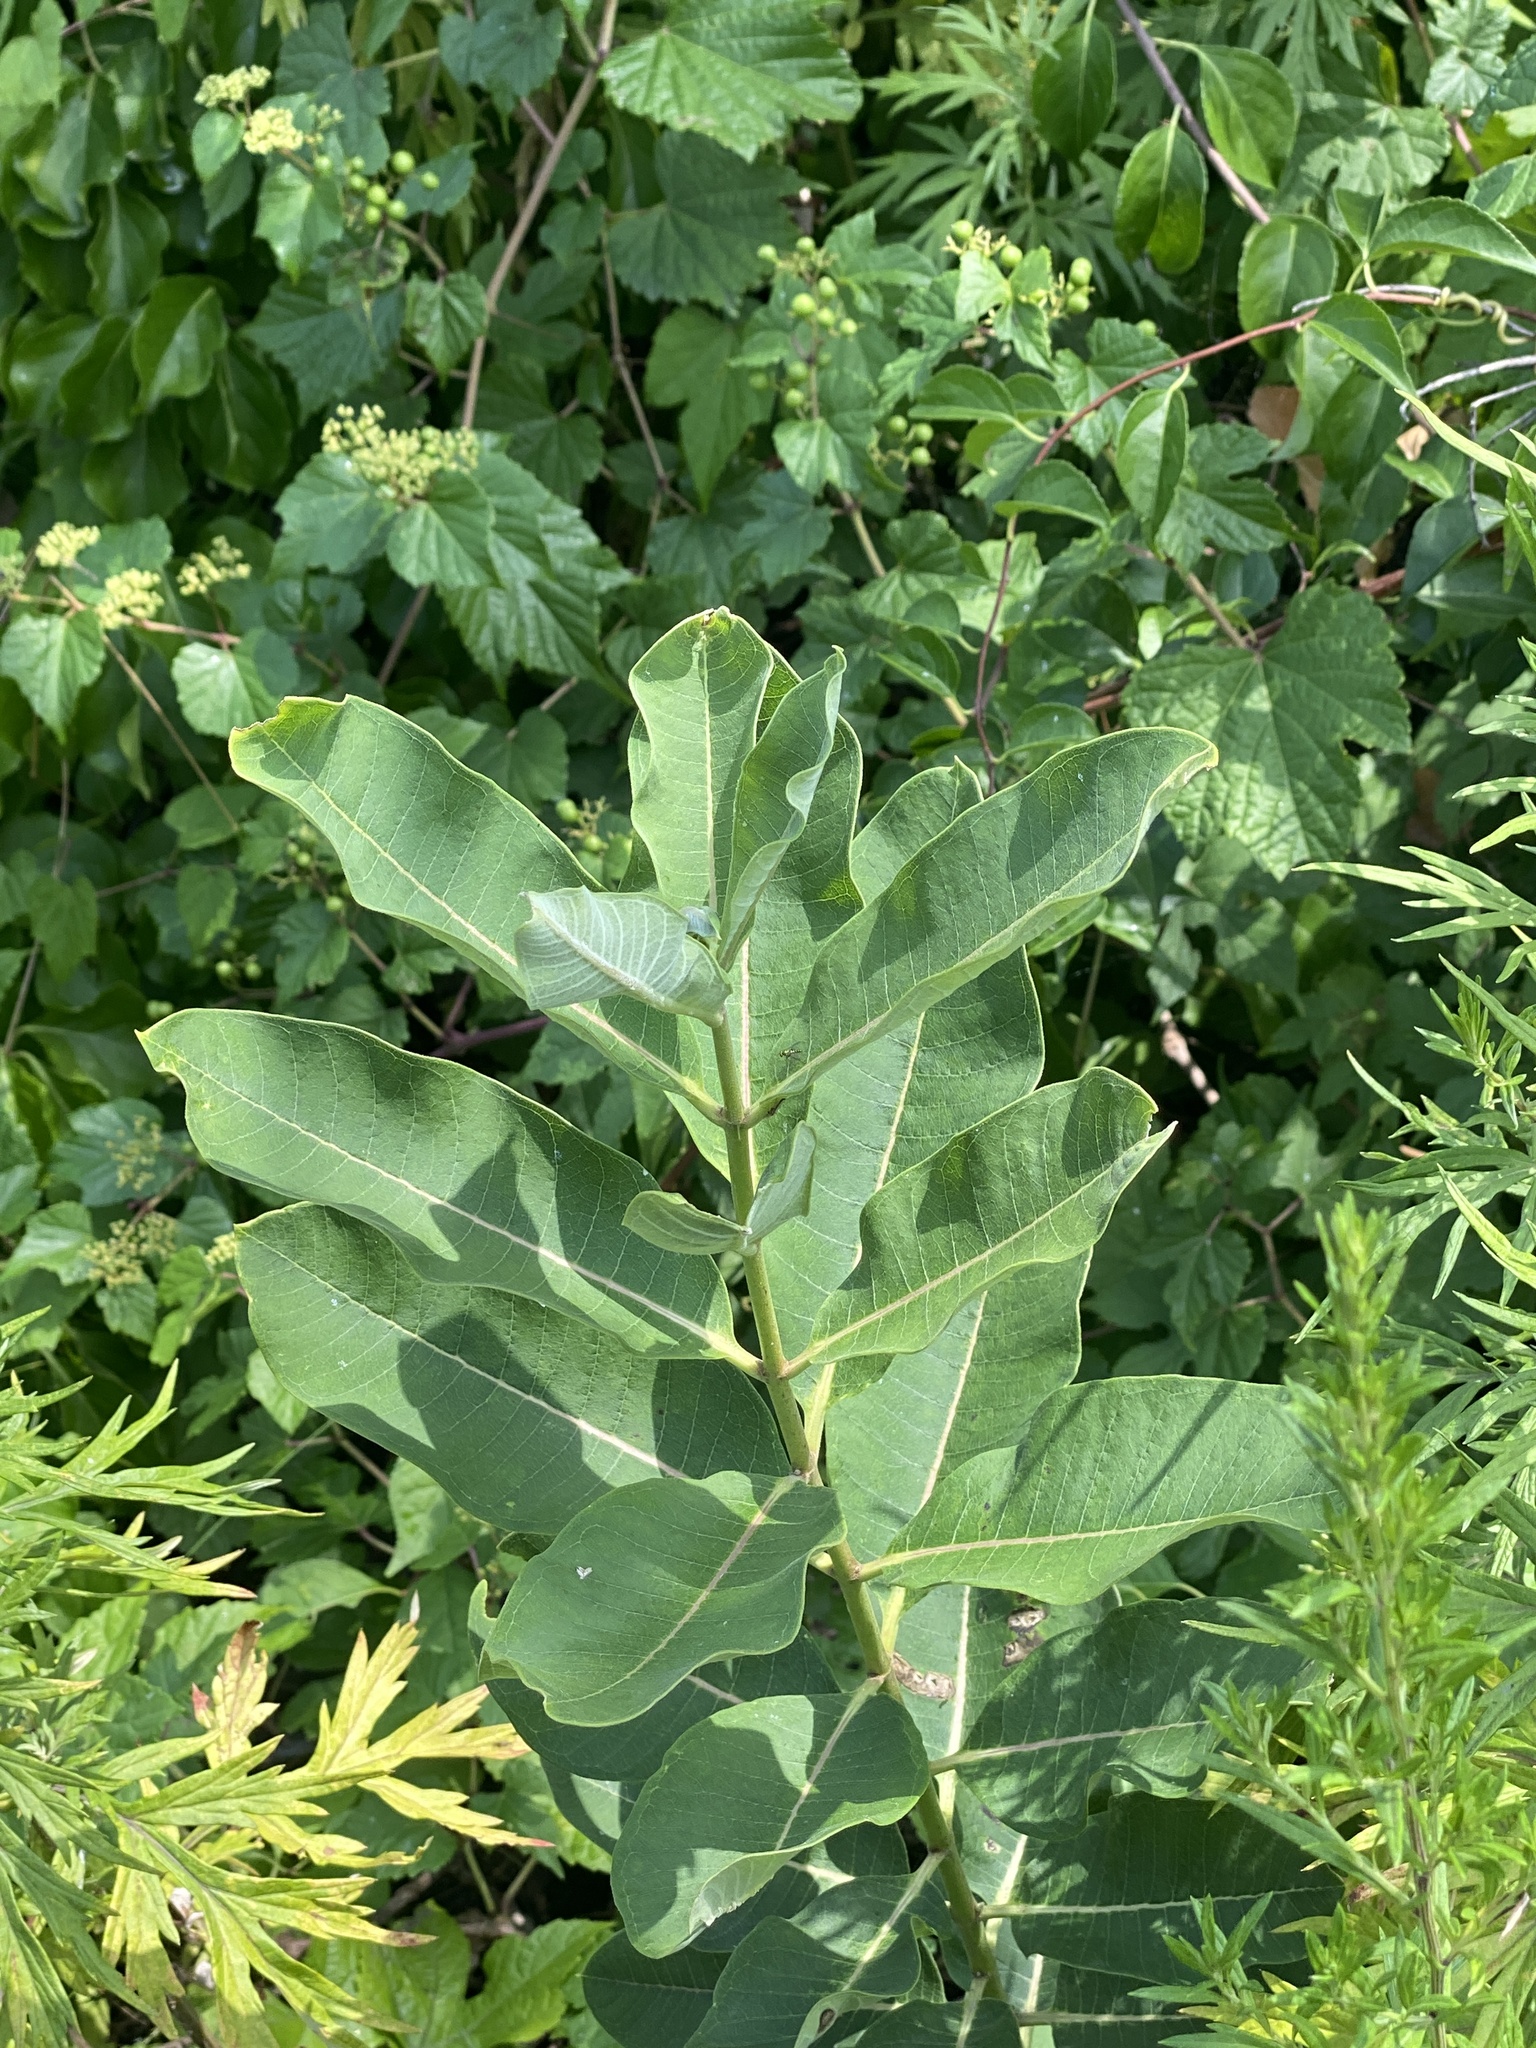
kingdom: Plantae
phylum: Tracheophyta
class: Magnoliopsida
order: Gentianales
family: Apocynaceae
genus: Asclepias
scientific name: Asclepias syriaca
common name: Common milkweed
